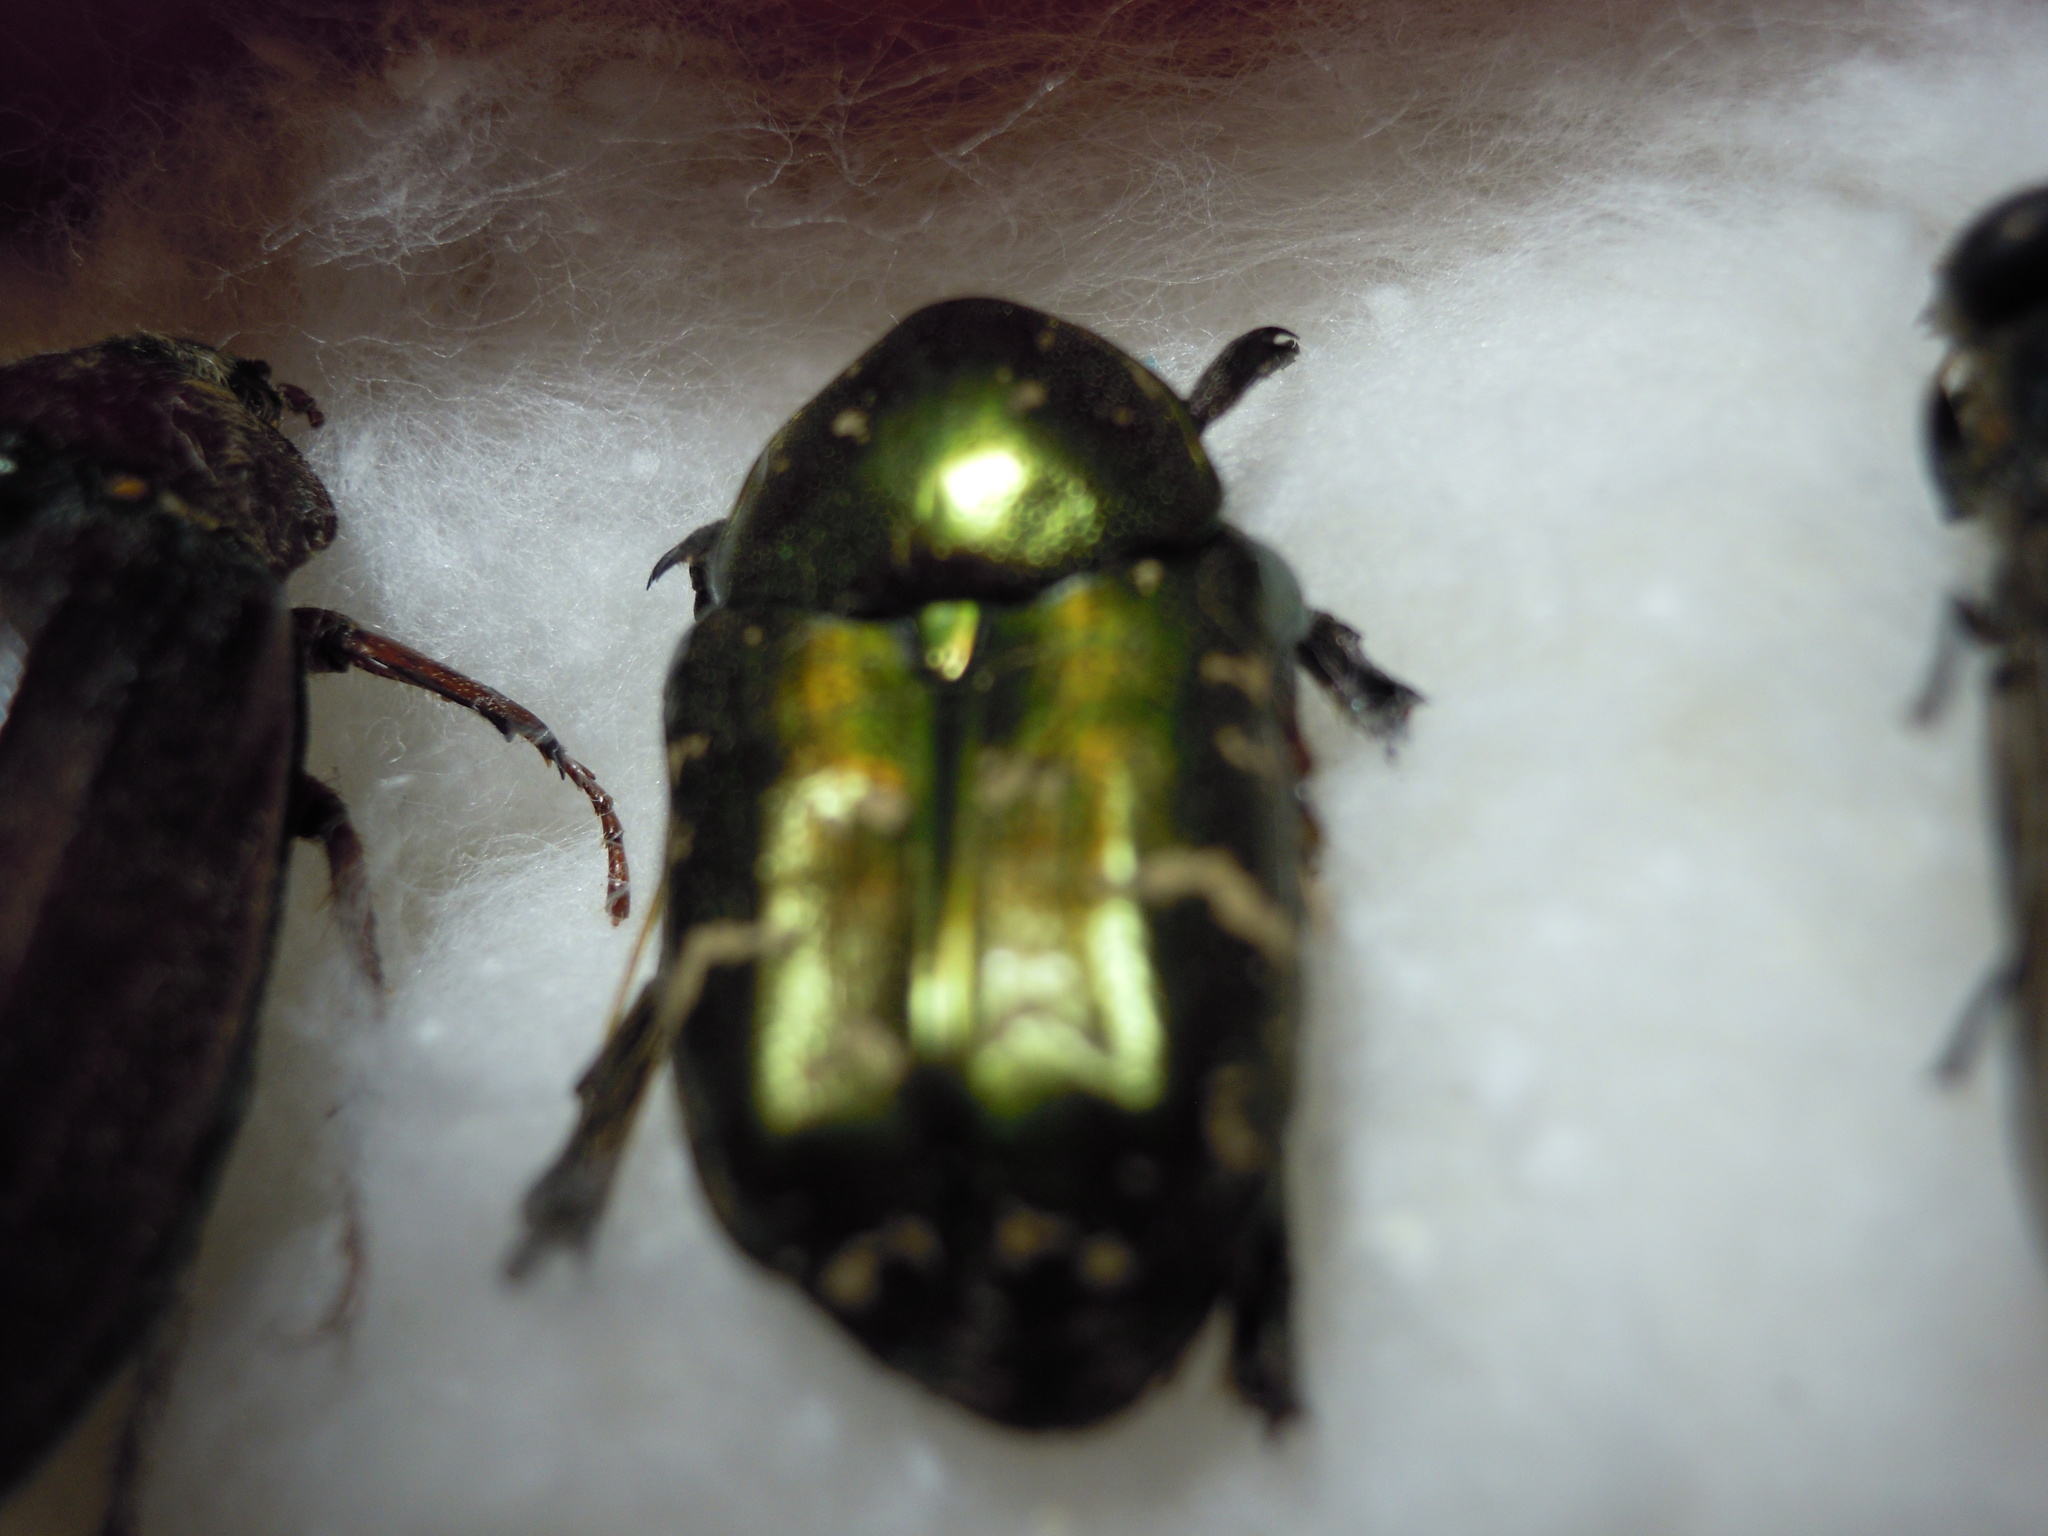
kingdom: Animalia
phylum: Arthropoda
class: Insecta
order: Coleoptera
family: Scarabaeidae
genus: Cetonia
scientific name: Cetonia aurata
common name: Rose chafer
